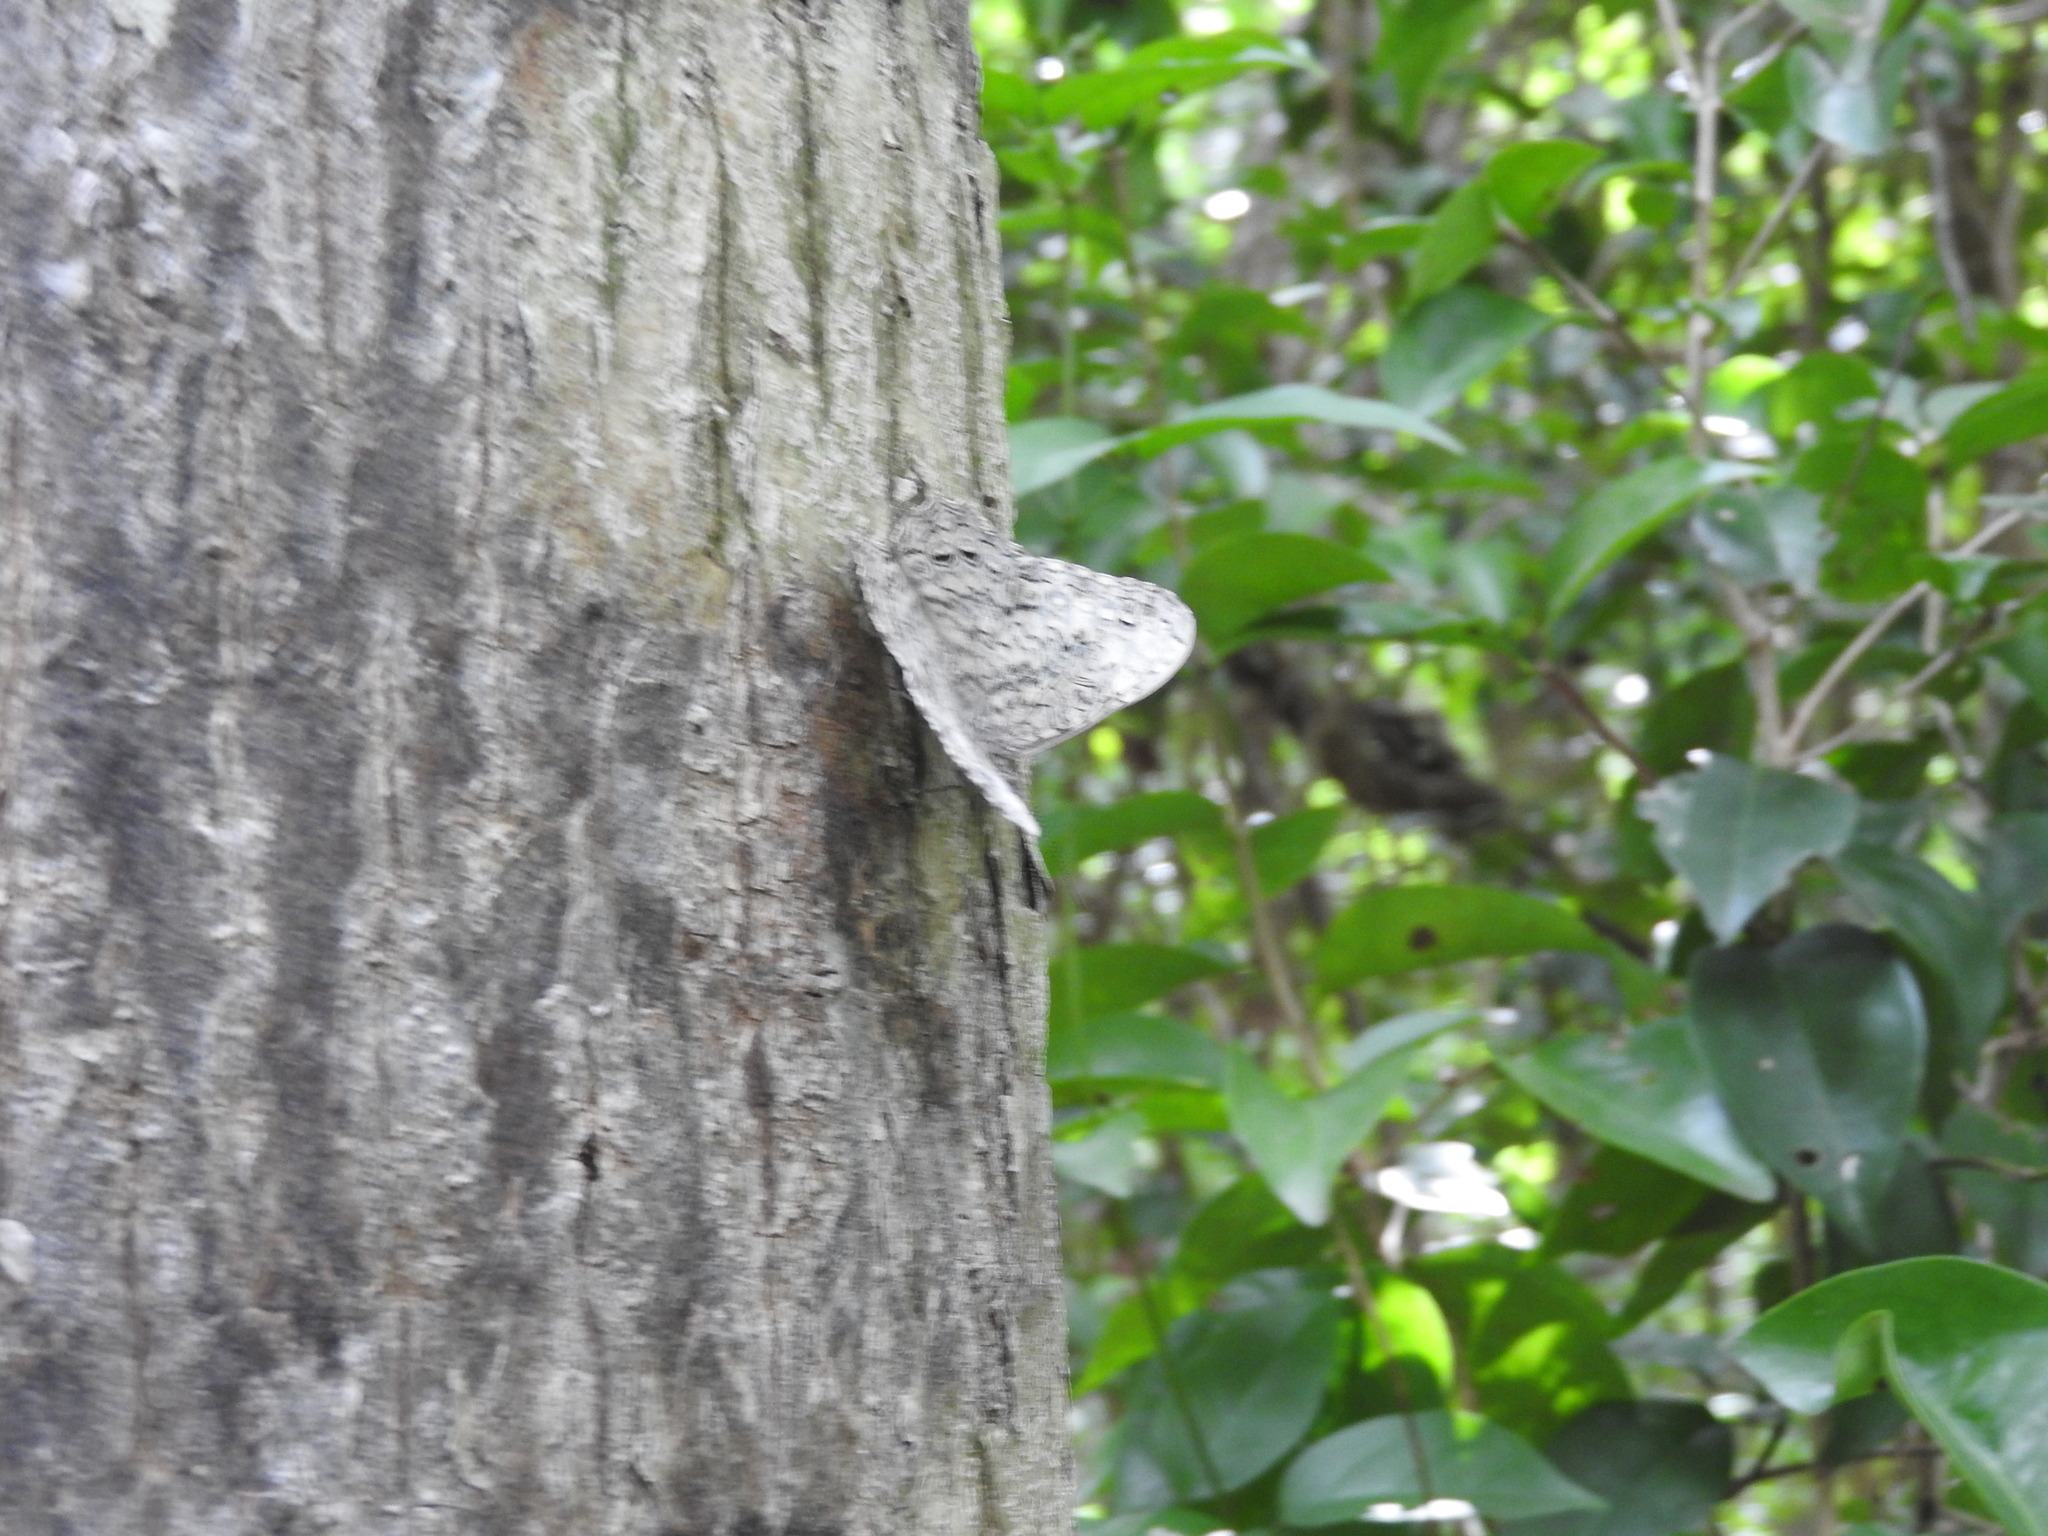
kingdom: Animalia
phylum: Arthropoda
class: Insecta
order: Lepidoptera
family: Nymphalidae
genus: Hamadryas
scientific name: Hamadryas glauconome
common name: Glaucous cracker
